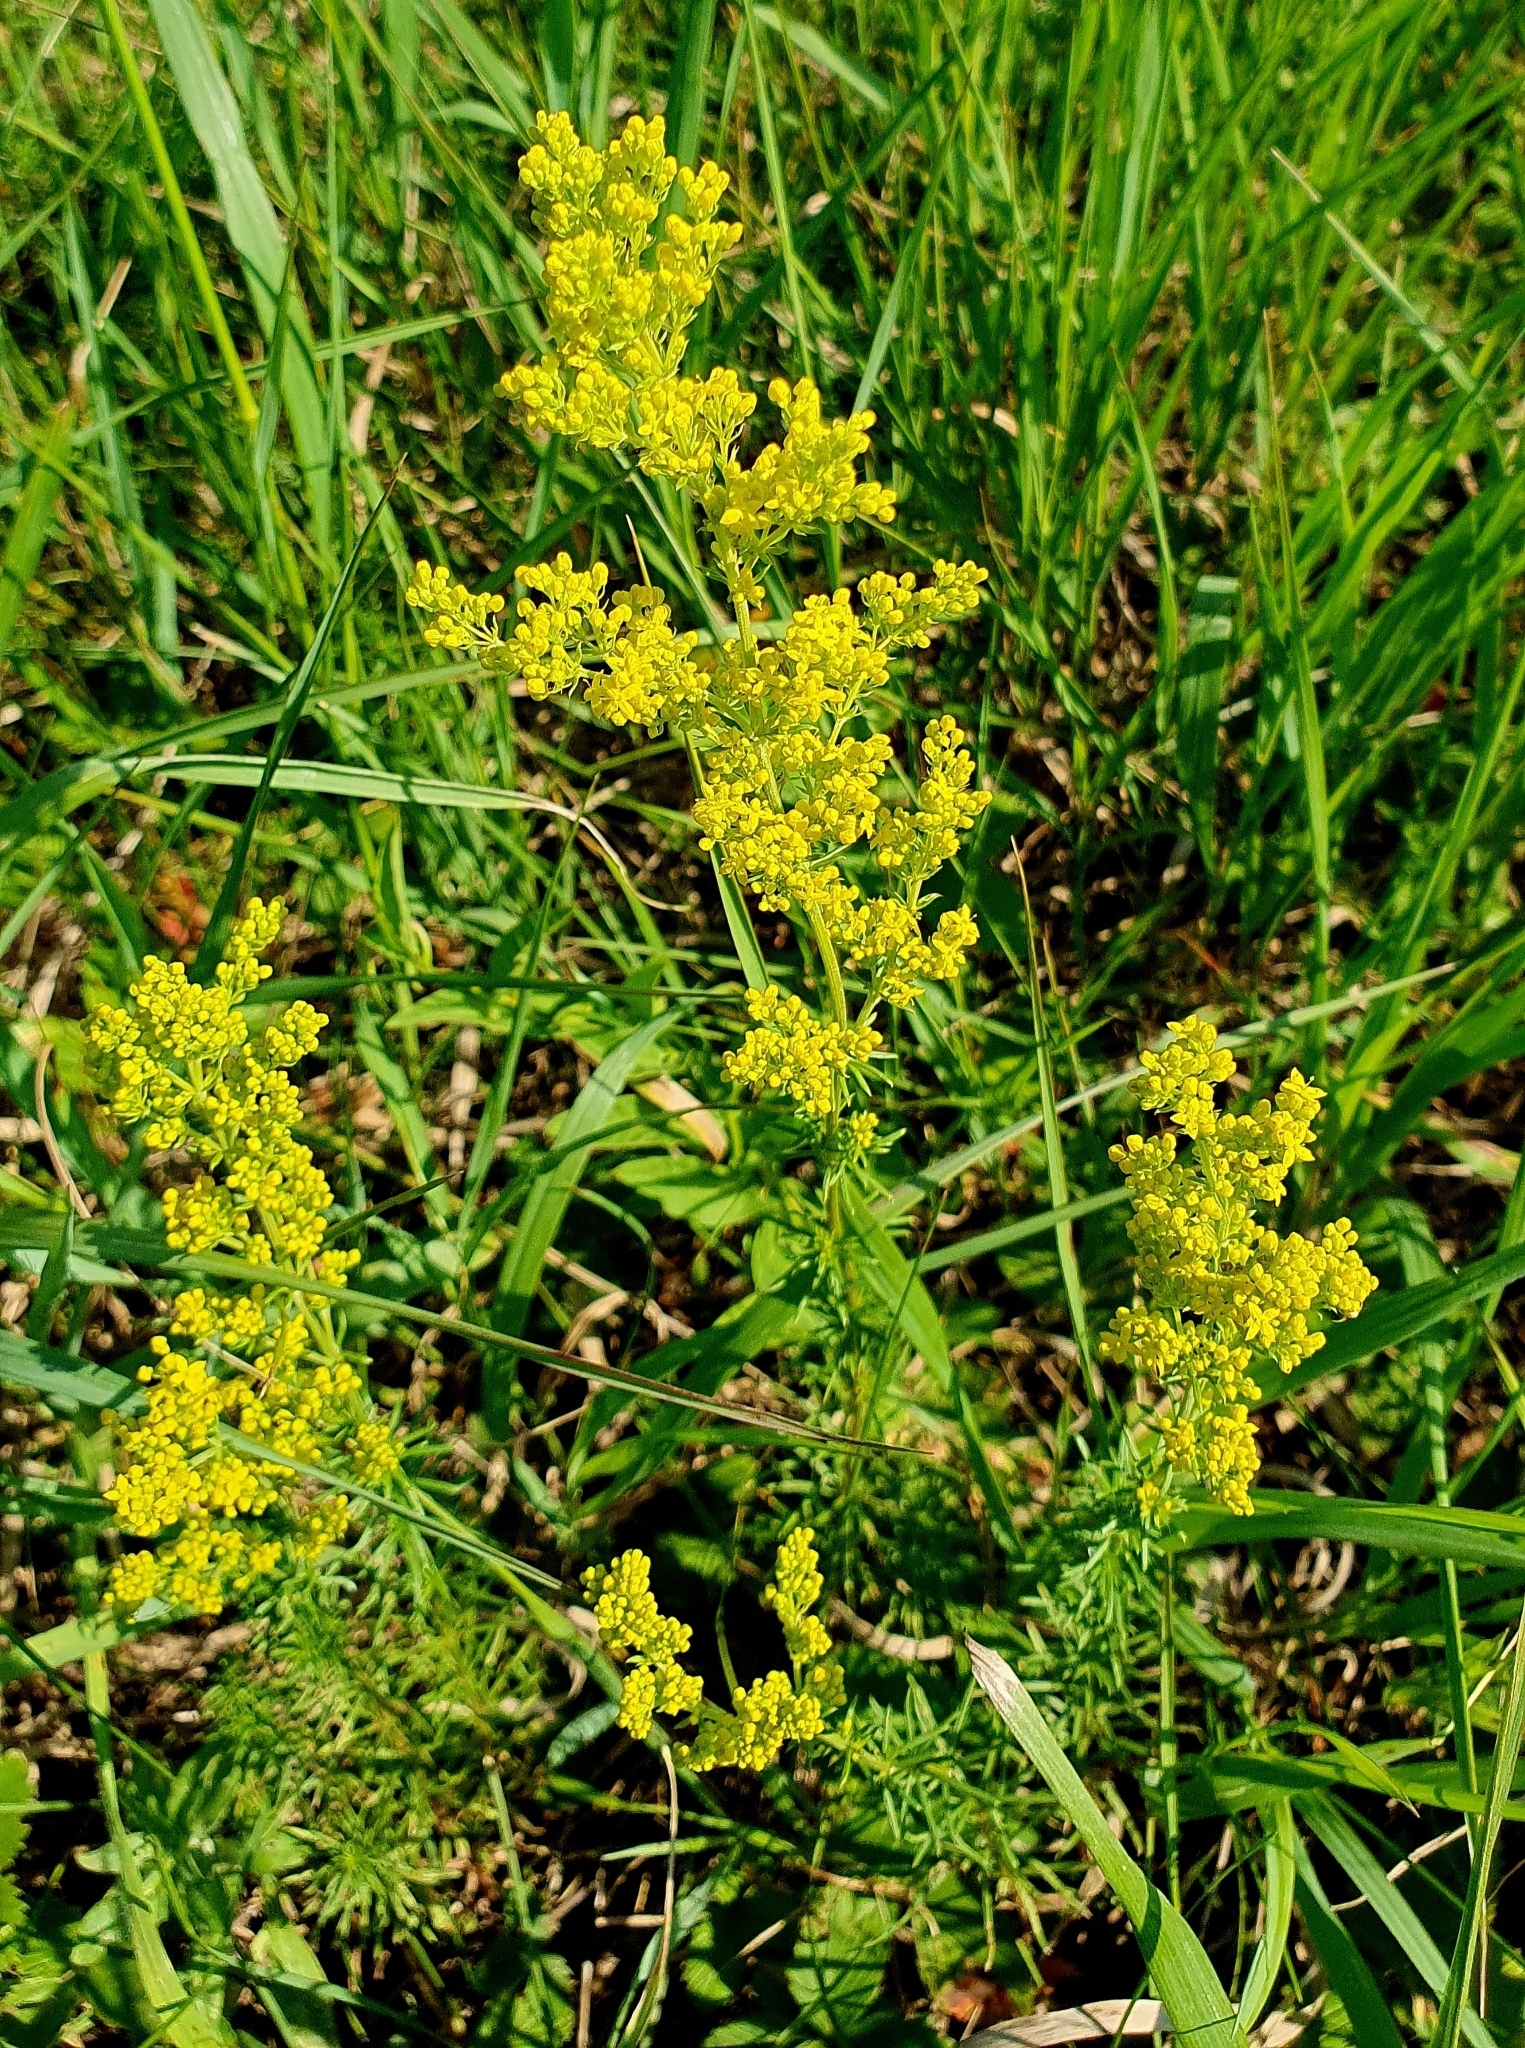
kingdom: Plantae
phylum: Tracheophyta
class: Magnoliopsida
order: Gentianales
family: Rubiaceae
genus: Galium
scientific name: Galium verum
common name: Lady's bedstraw
